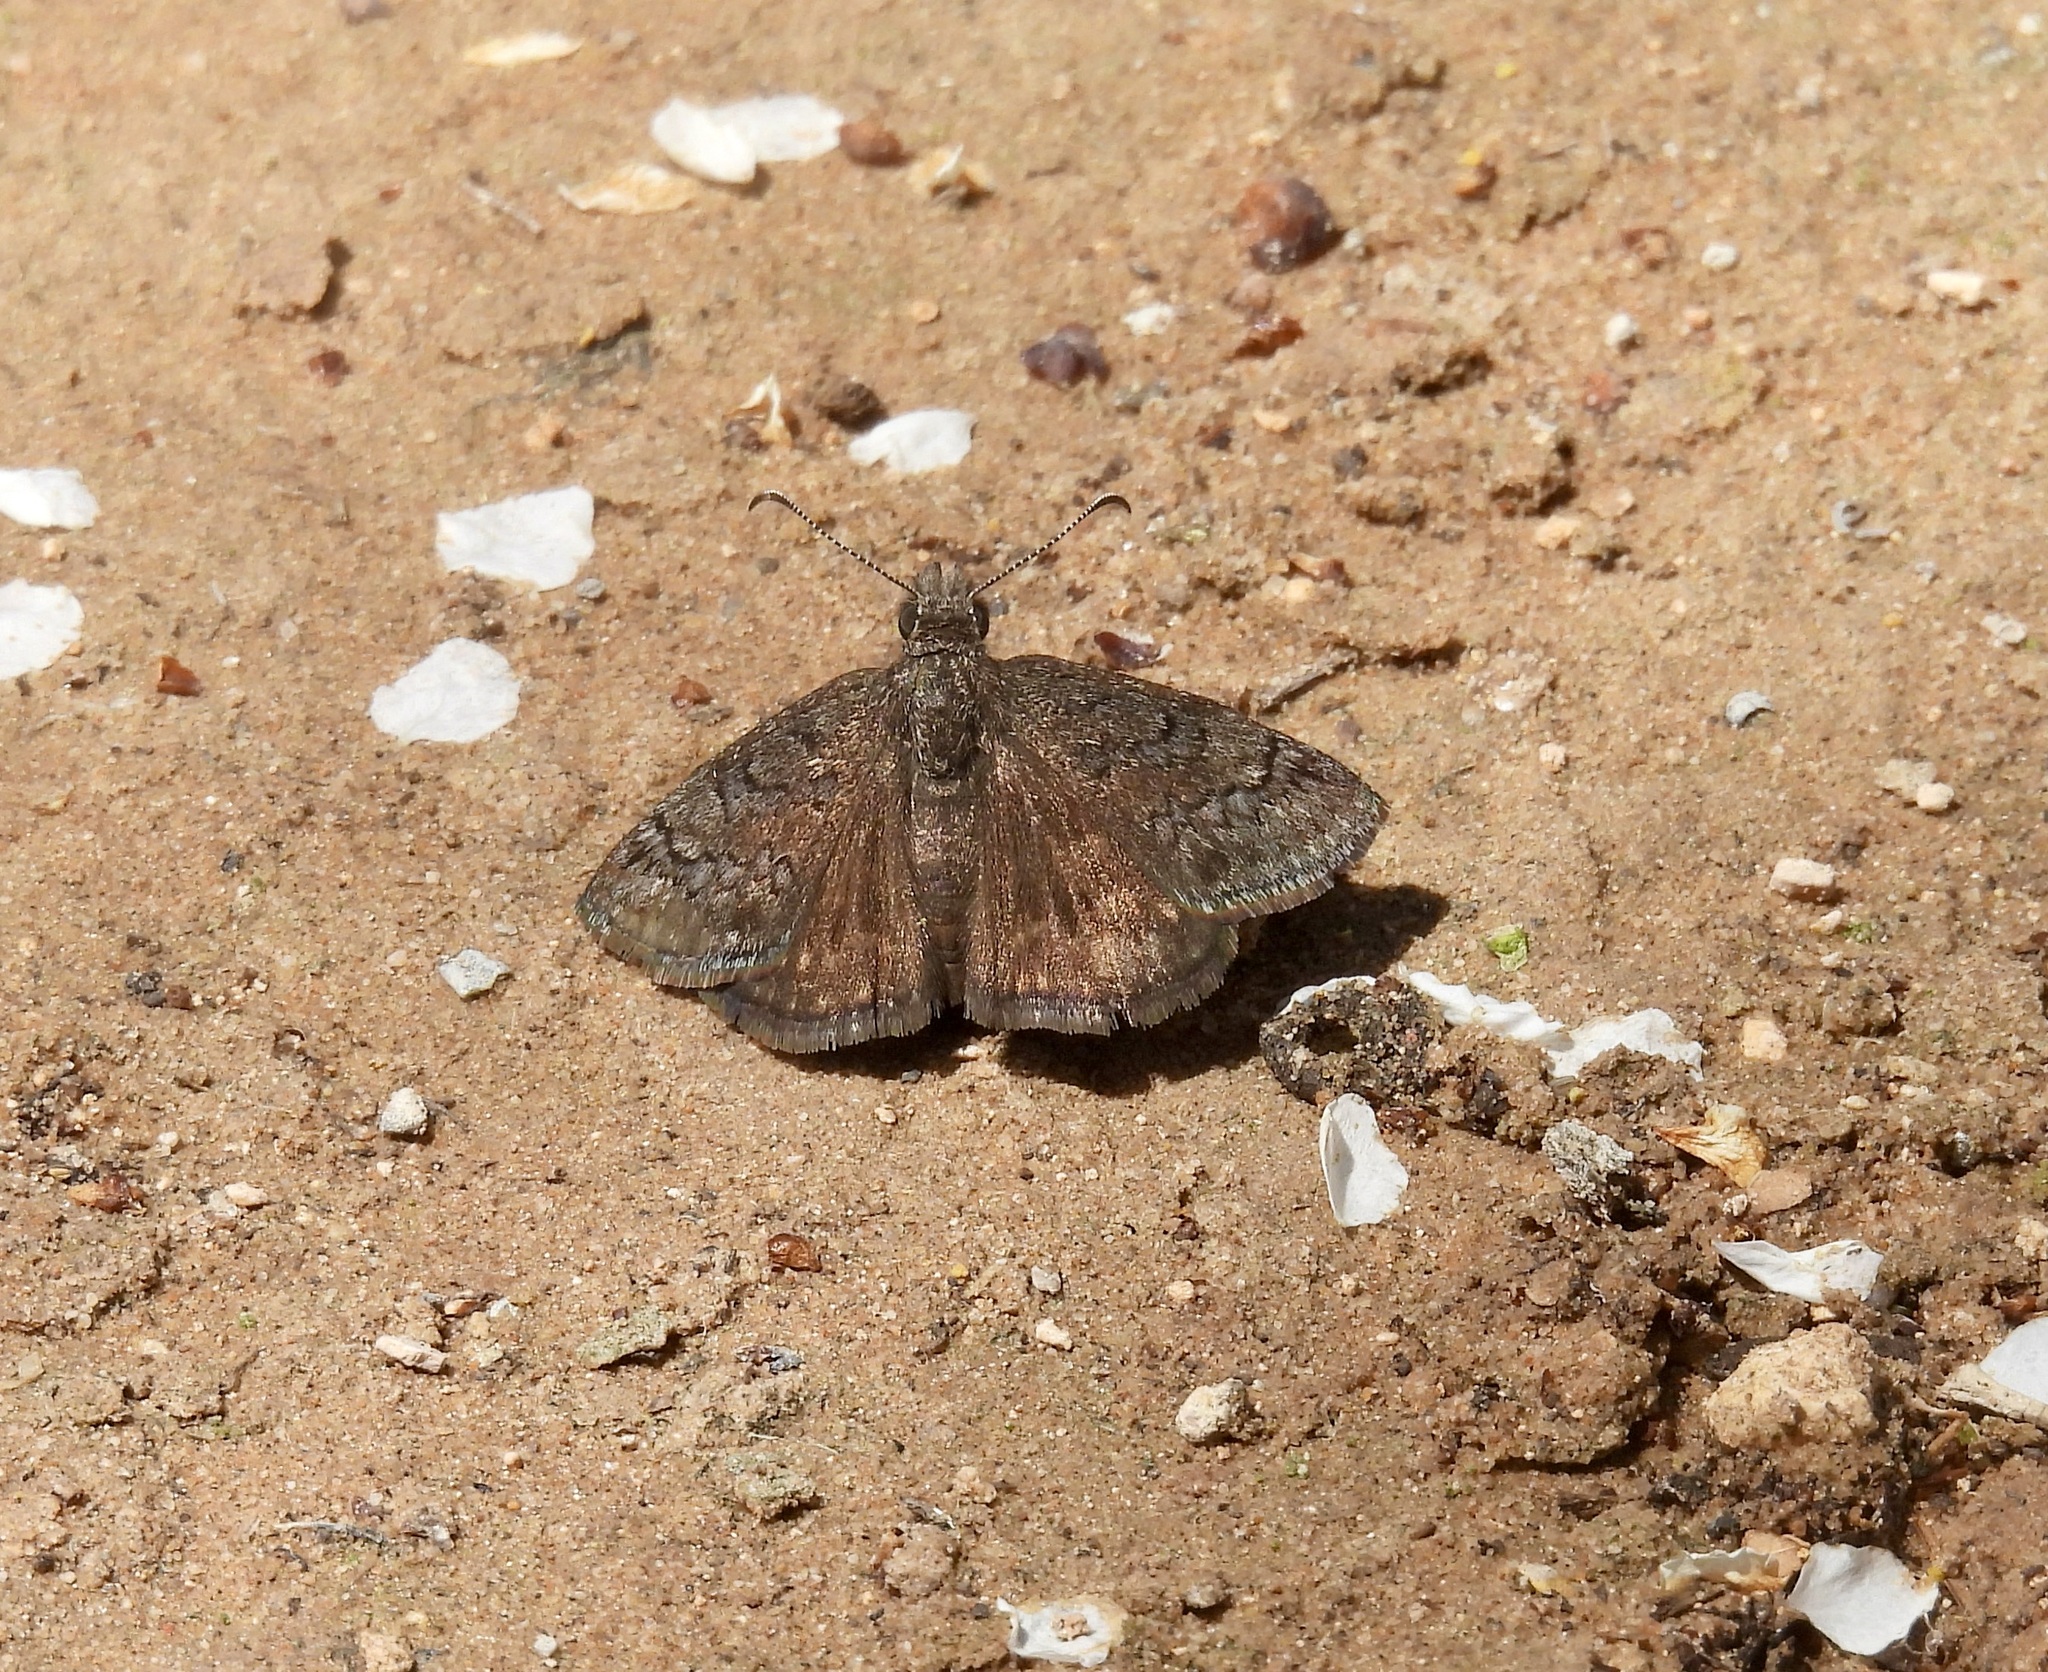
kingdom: Animalia
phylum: Arthropoda
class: Insecta
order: Lepidoptera
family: Hesperiidae
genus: Erynnis
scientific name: Erynnis brizo
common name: Sleepy duskywing
